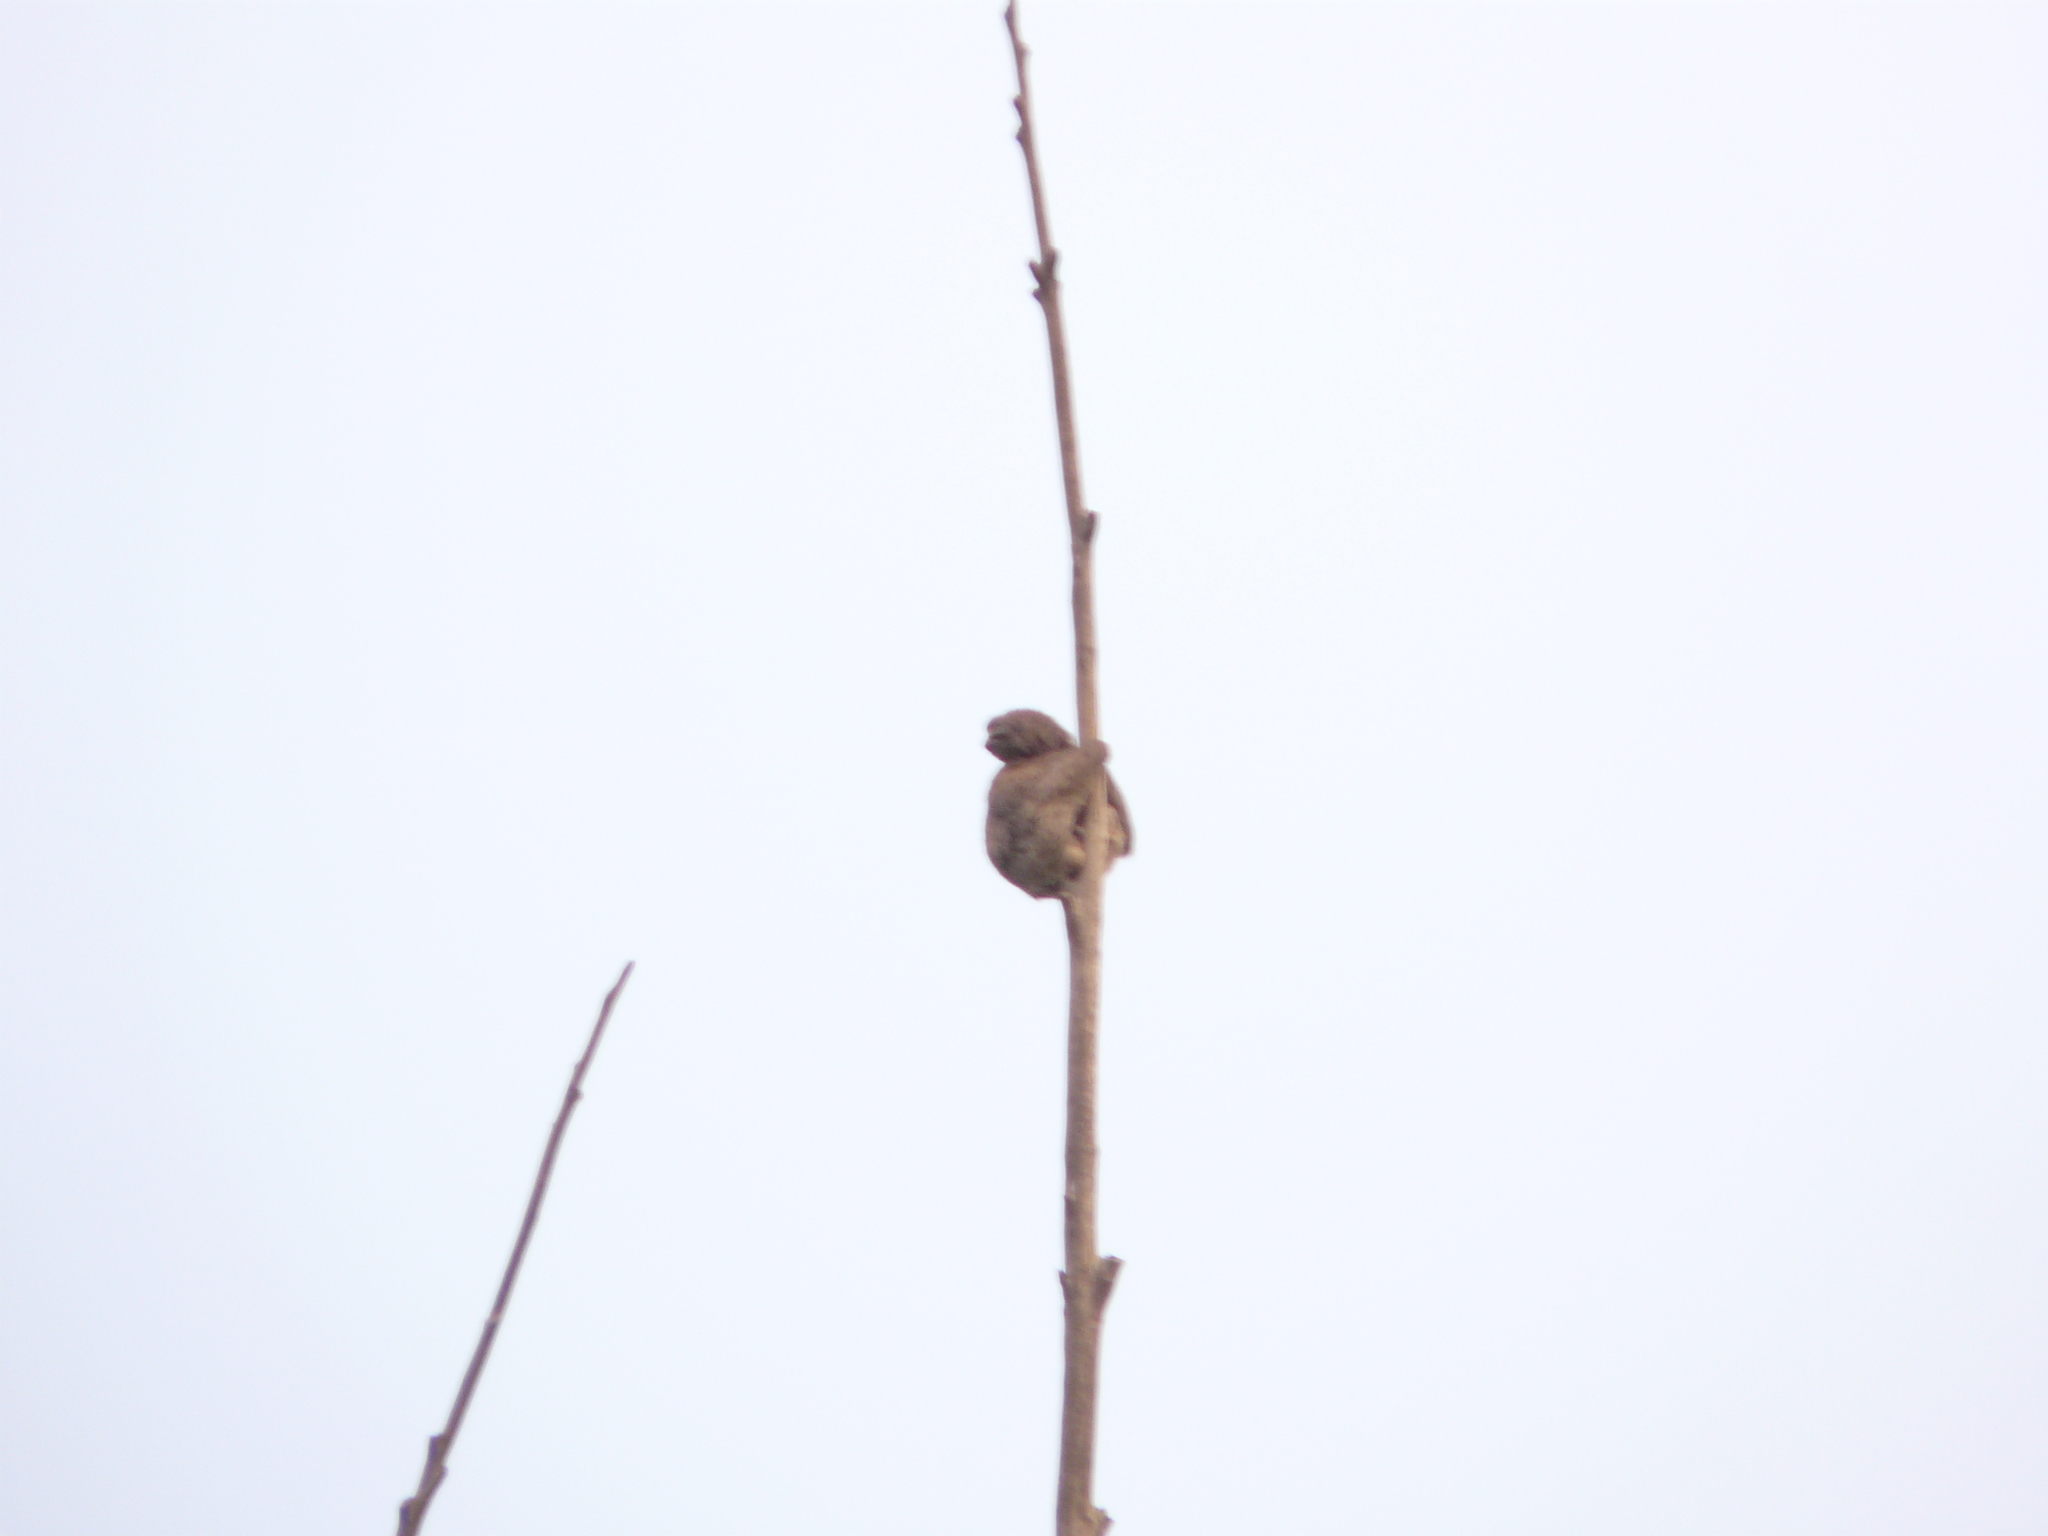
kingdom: Animalia
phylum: Chordata
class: Mammalia
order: Pilosa
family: Bradypodidae
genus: Bradypus
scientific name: Bradypus variegatus
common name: Brown-throated three-toed sloth
